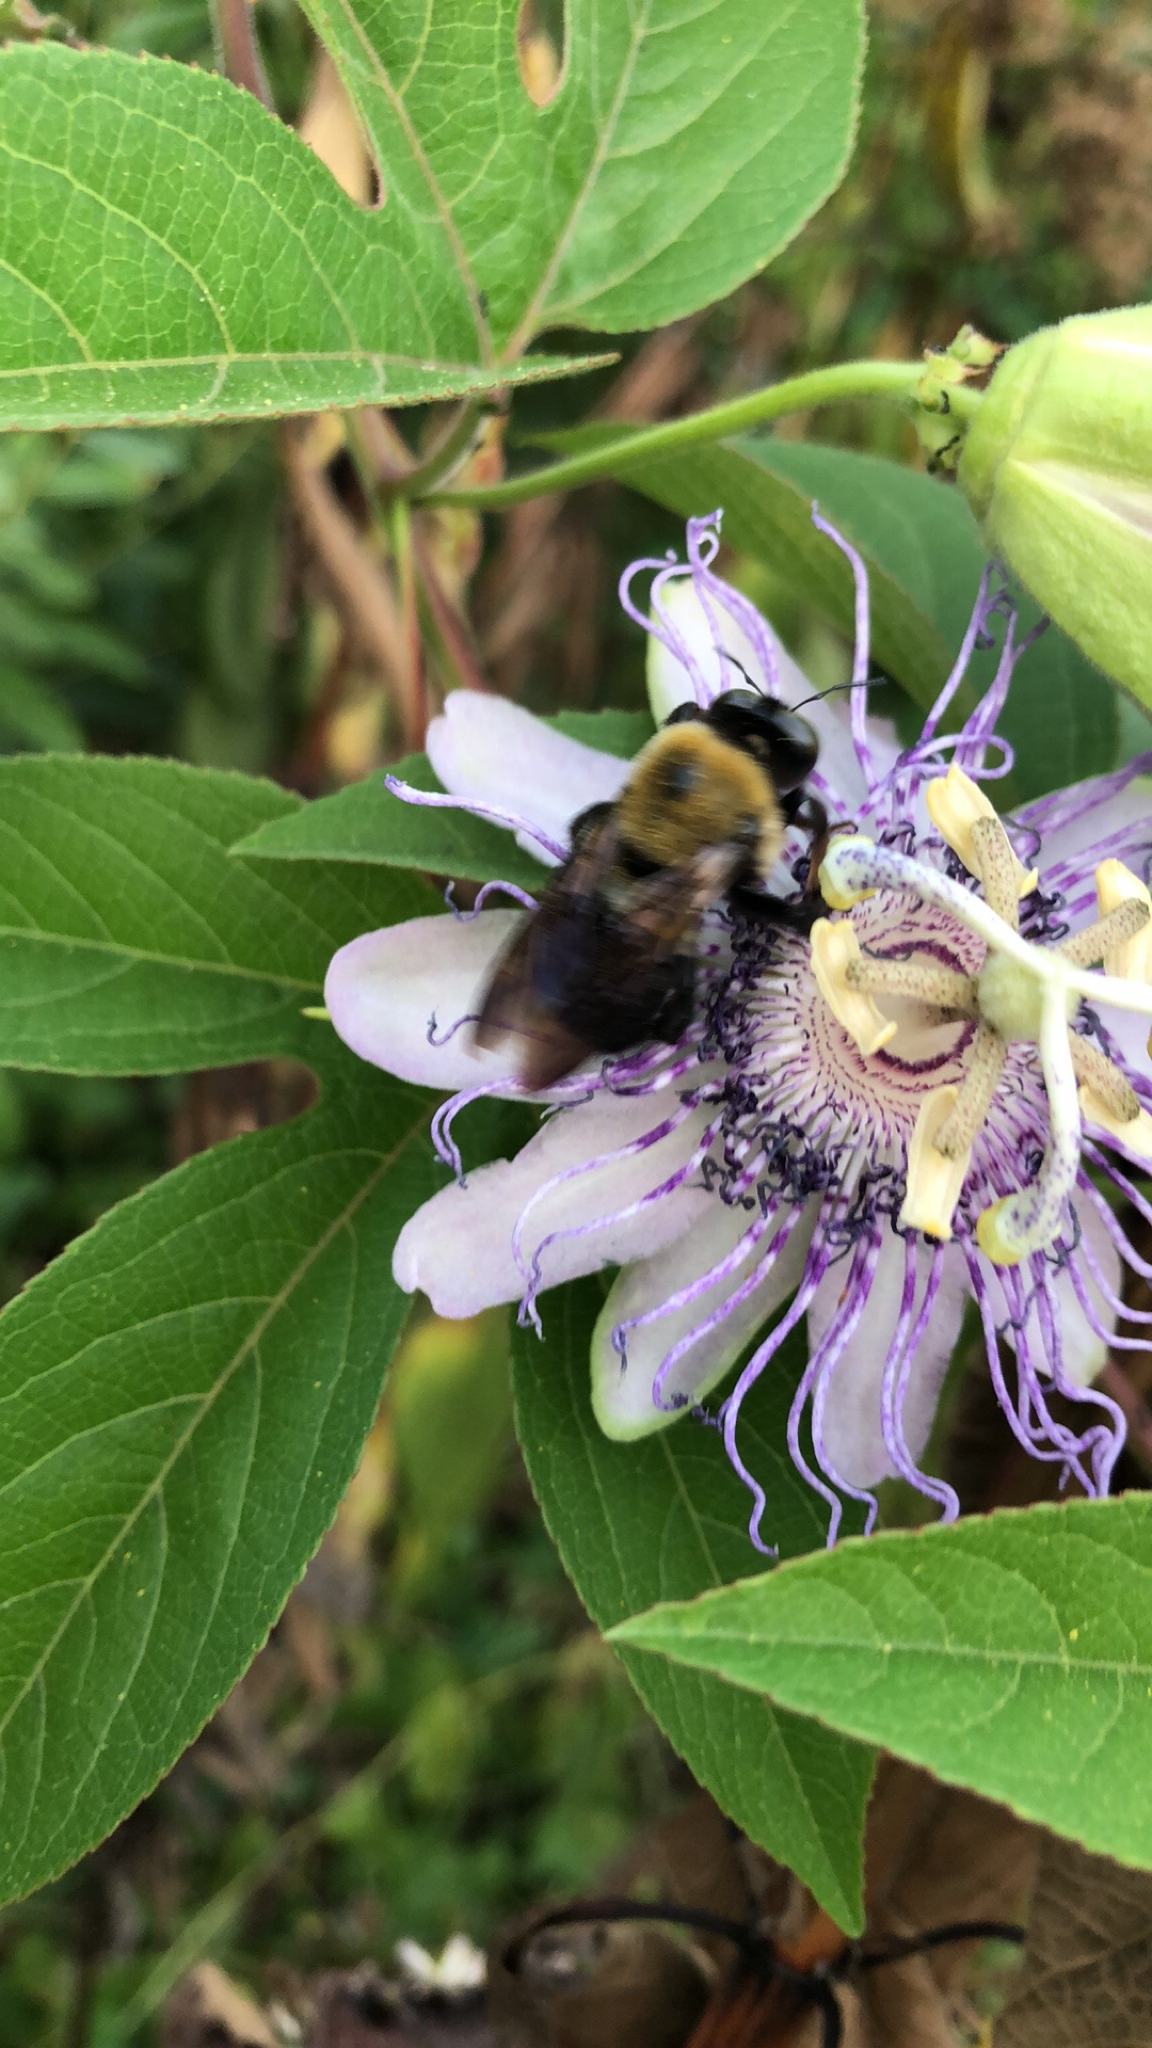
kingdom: Animalia
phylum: Arthropoda
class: Insecta
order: Hymenoptera
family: Apidae
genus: Xylocopa
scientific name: Xylocopa virginica
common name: Carpenter bee
